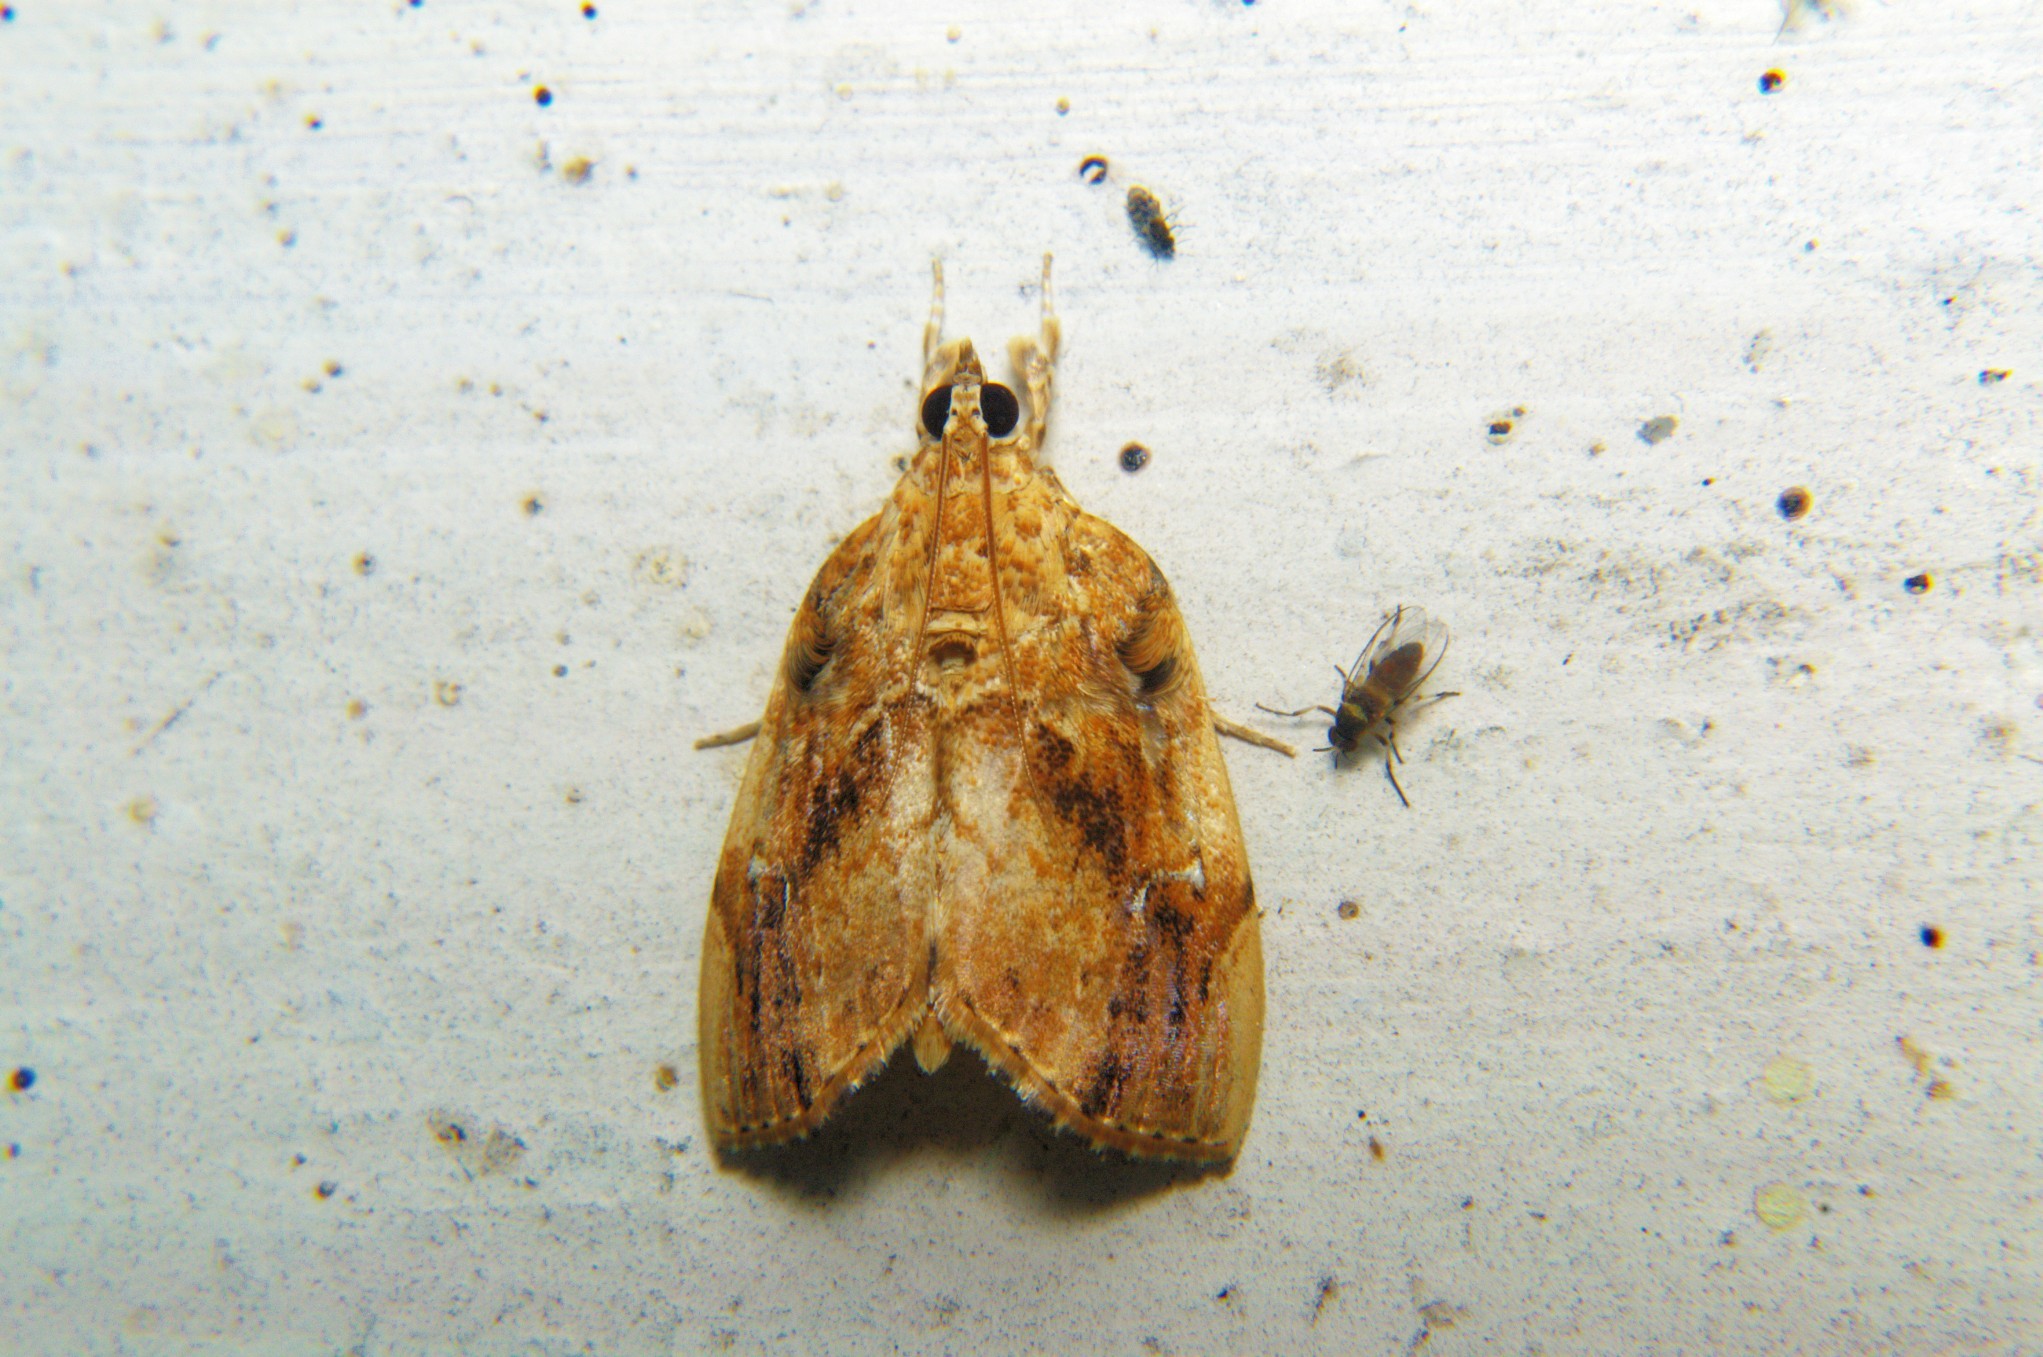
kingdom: Animalia
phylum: Arthropoda
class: Insecta
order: Lepidoptera
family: Crambidae
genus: Crocidolomia
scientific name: Crocidolomia pavonana
